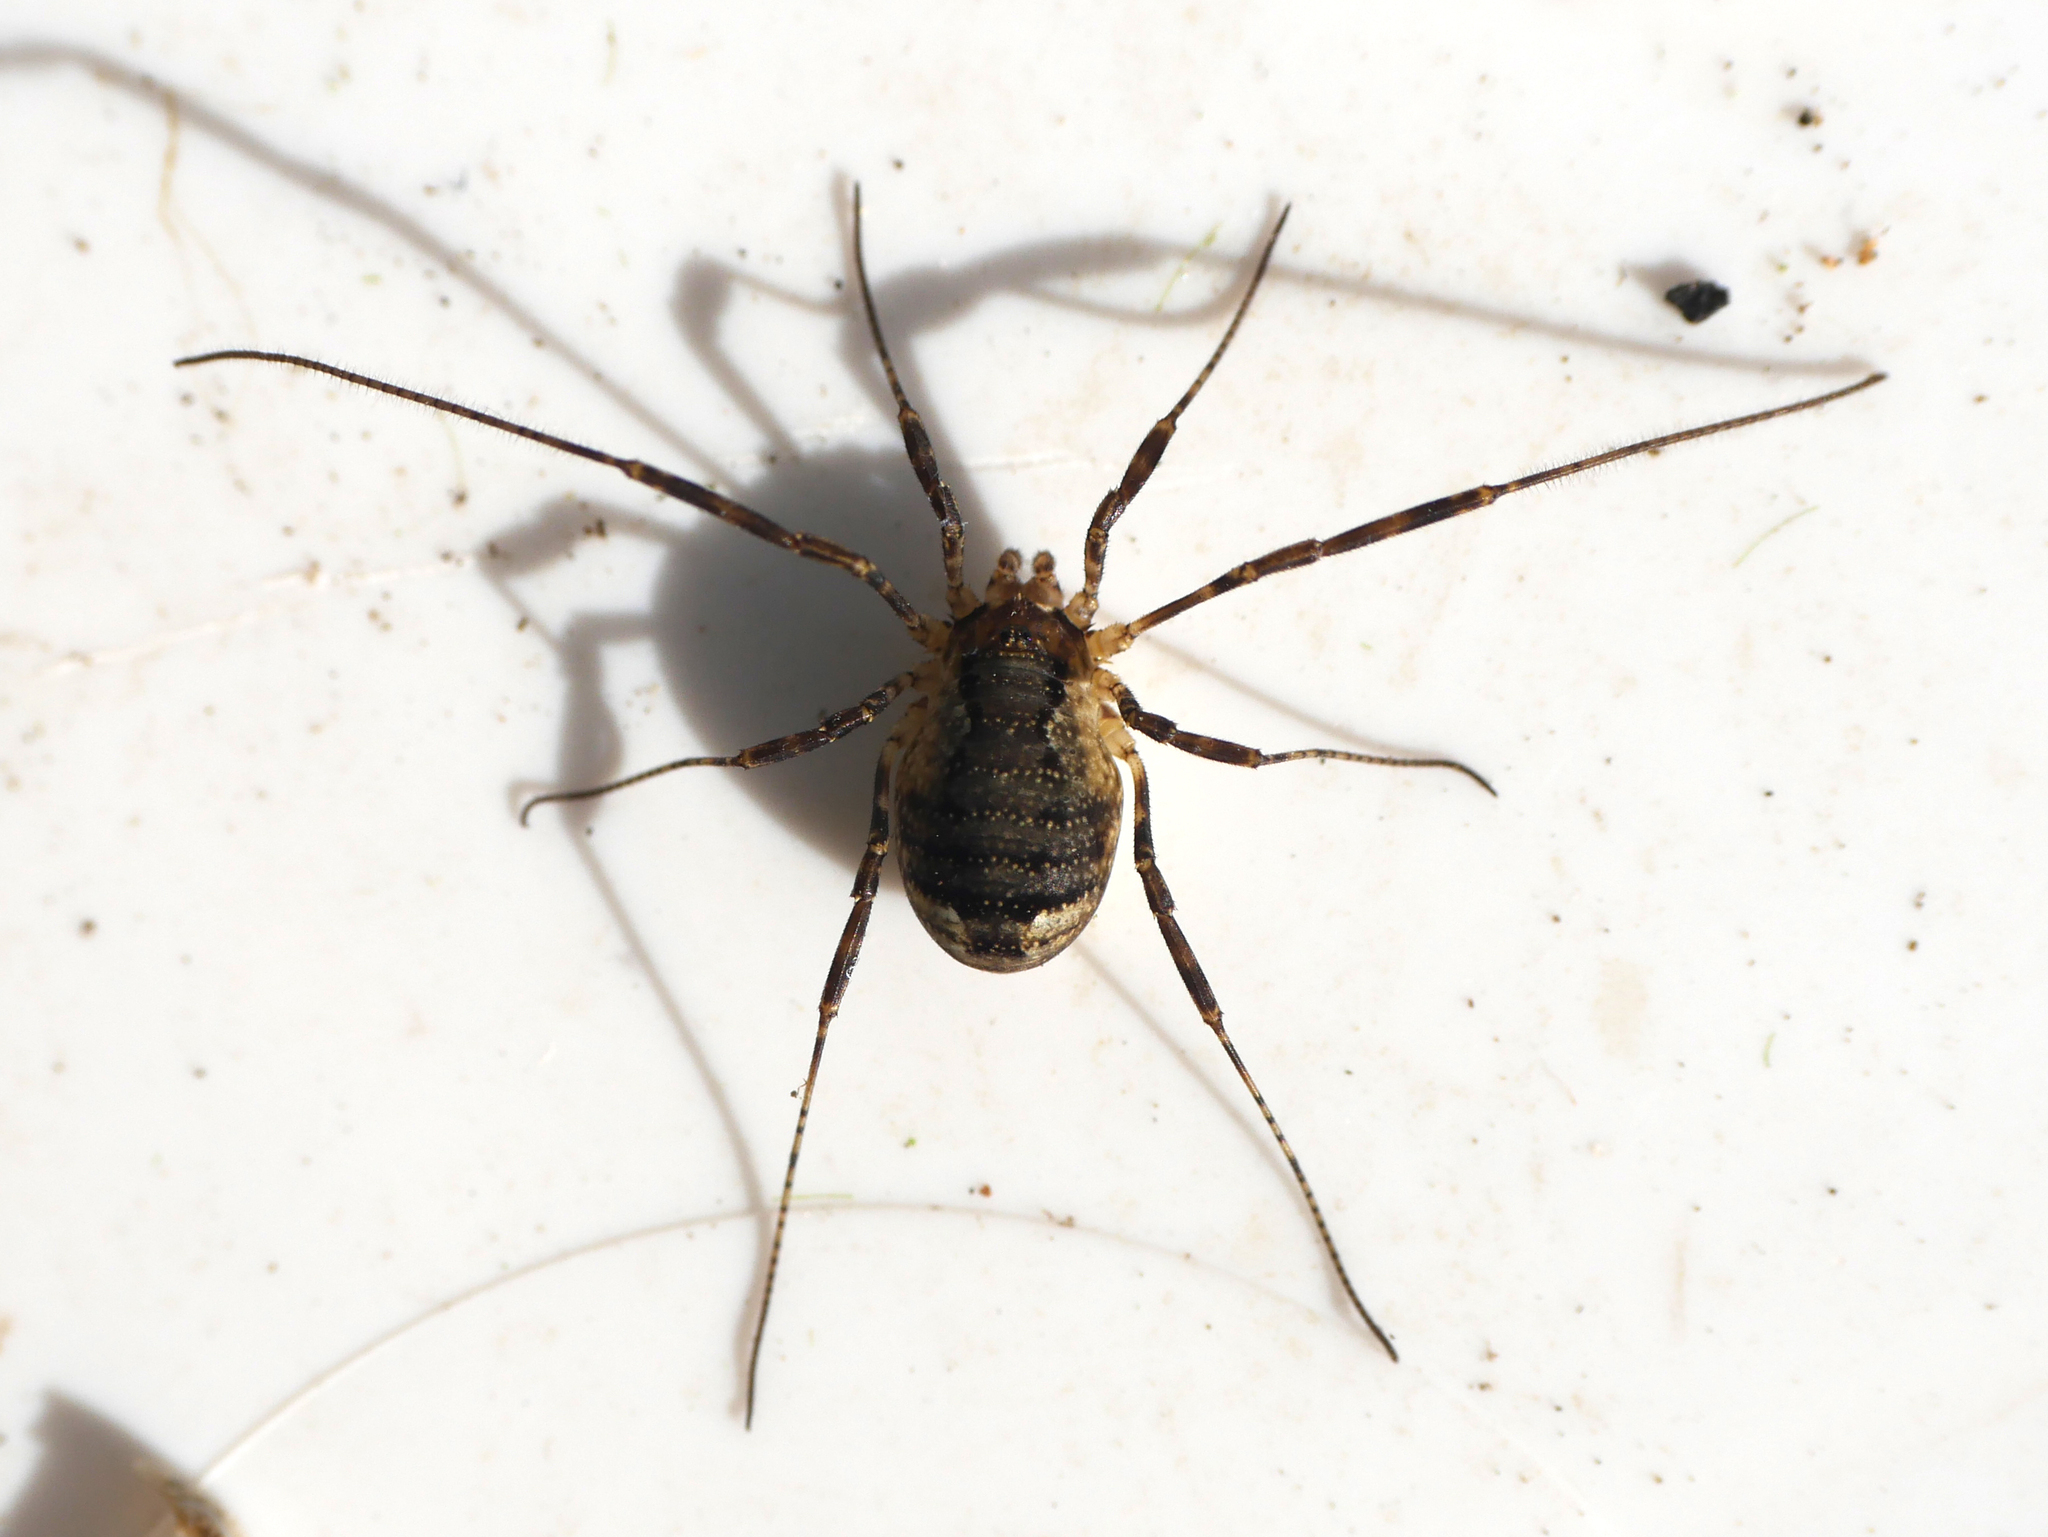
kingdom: Animalia
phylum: Arthropoda
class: Arachnida
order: Opiliones
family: Phalangiidae
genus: Oligolophus
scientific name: Oligolophus hansenii
